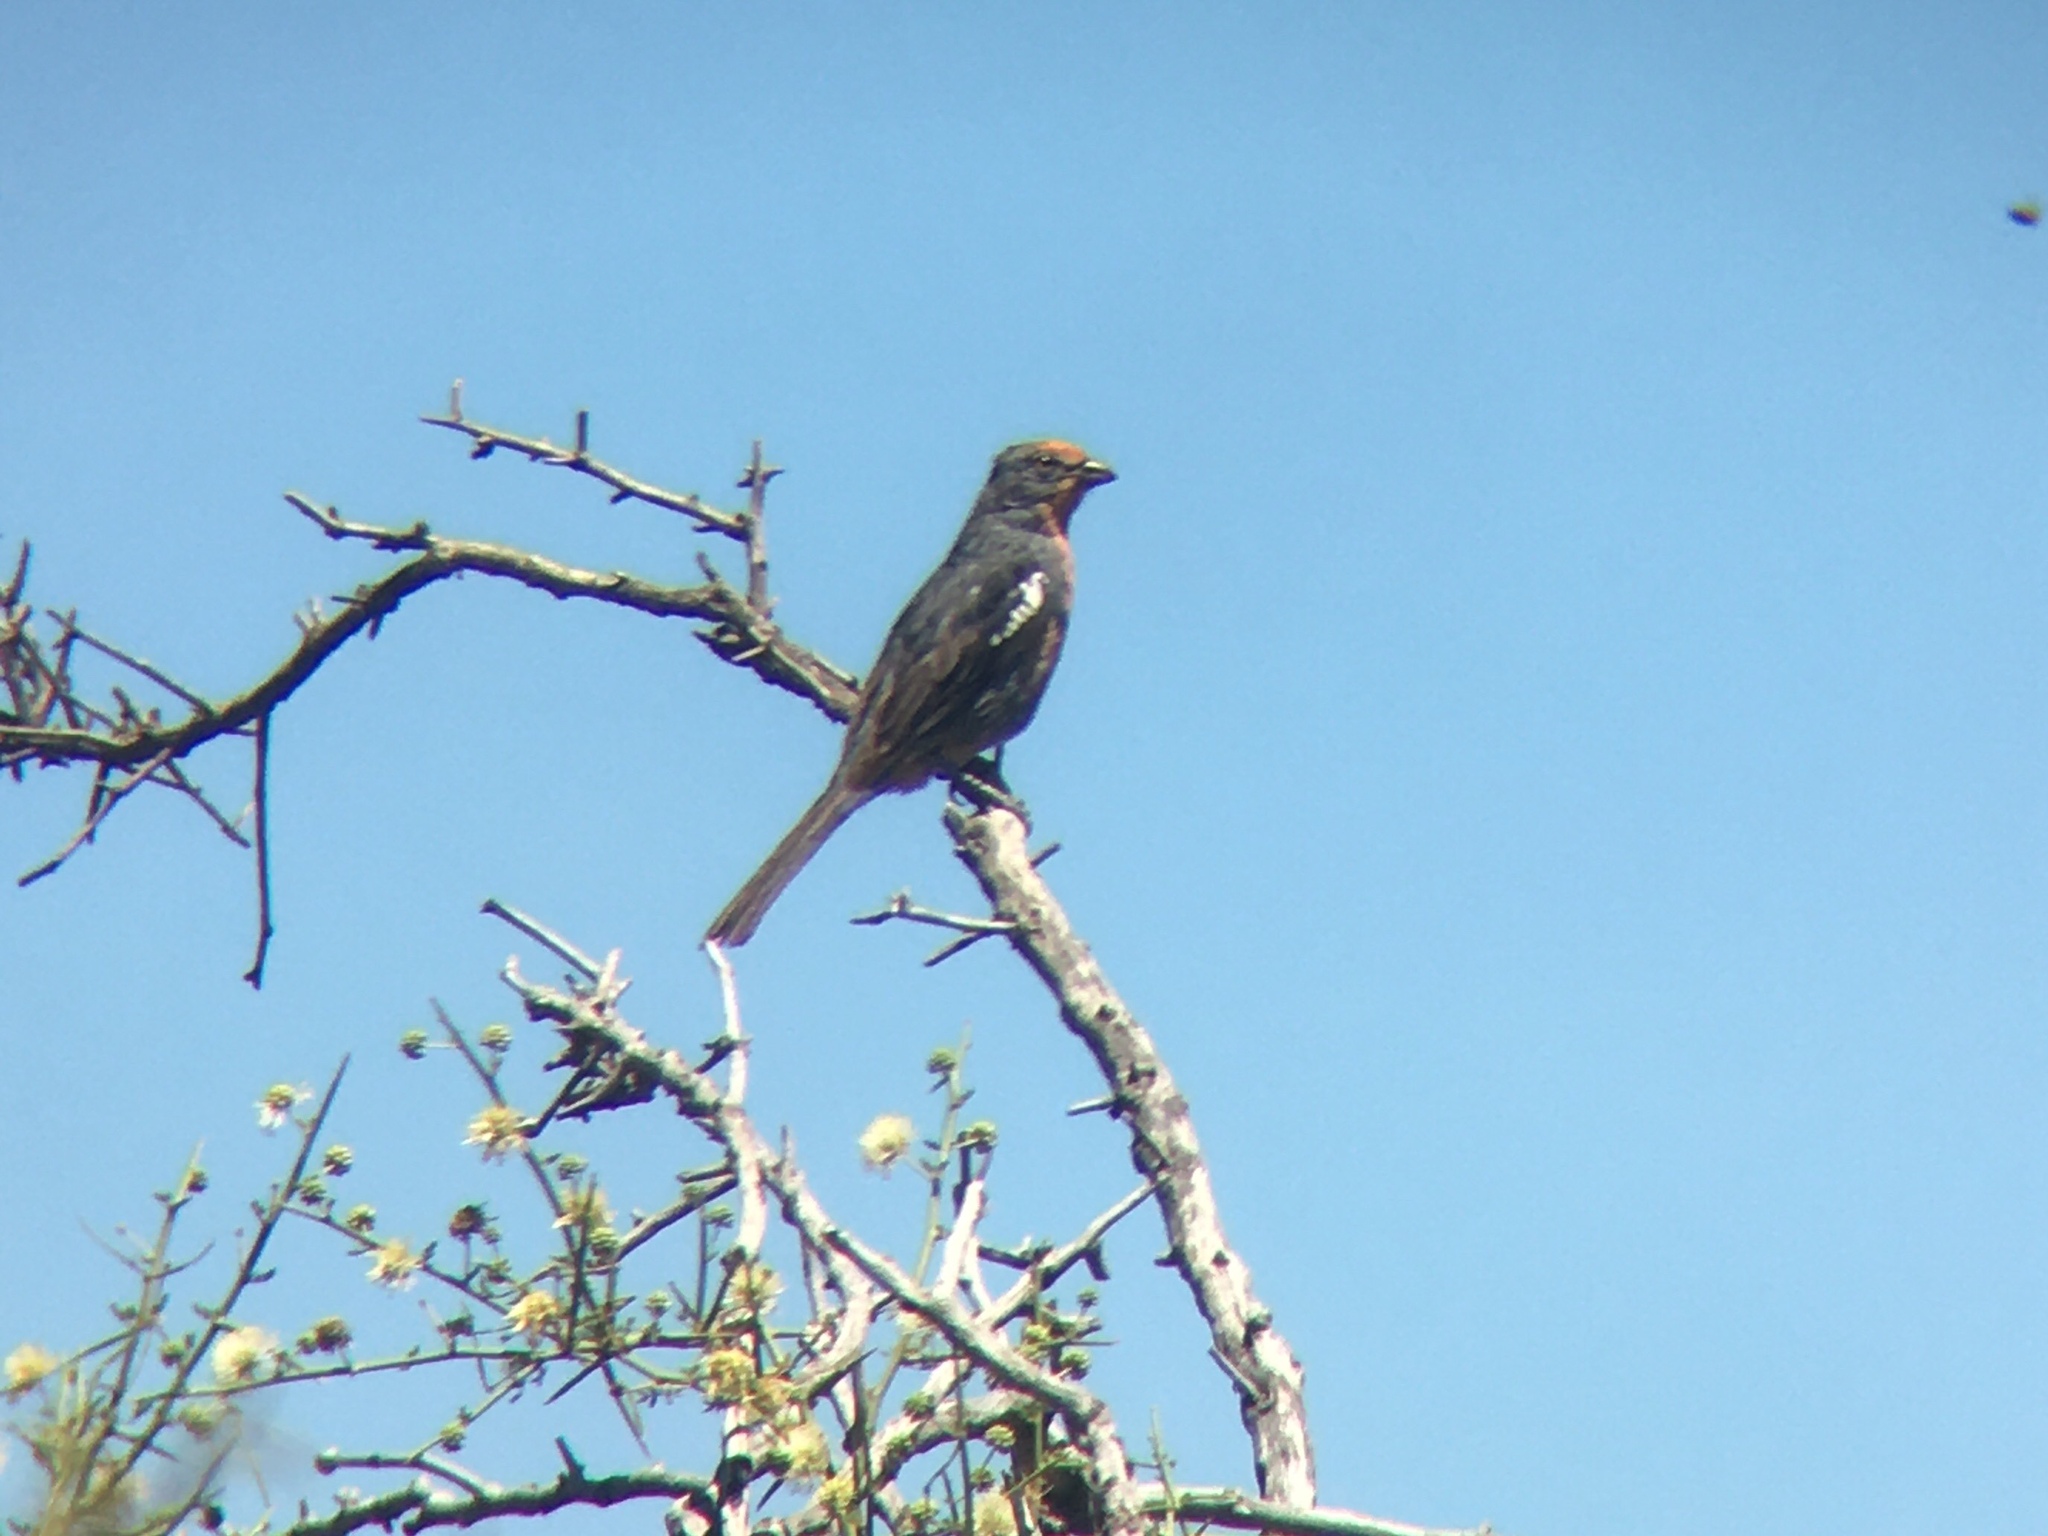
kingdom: Animalia
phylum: Chordata
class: Aves
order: Passeriformes
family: Cotingidae
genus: Phytotoma
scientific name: Phytotoma rutila
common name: White-tipped plantcutter
